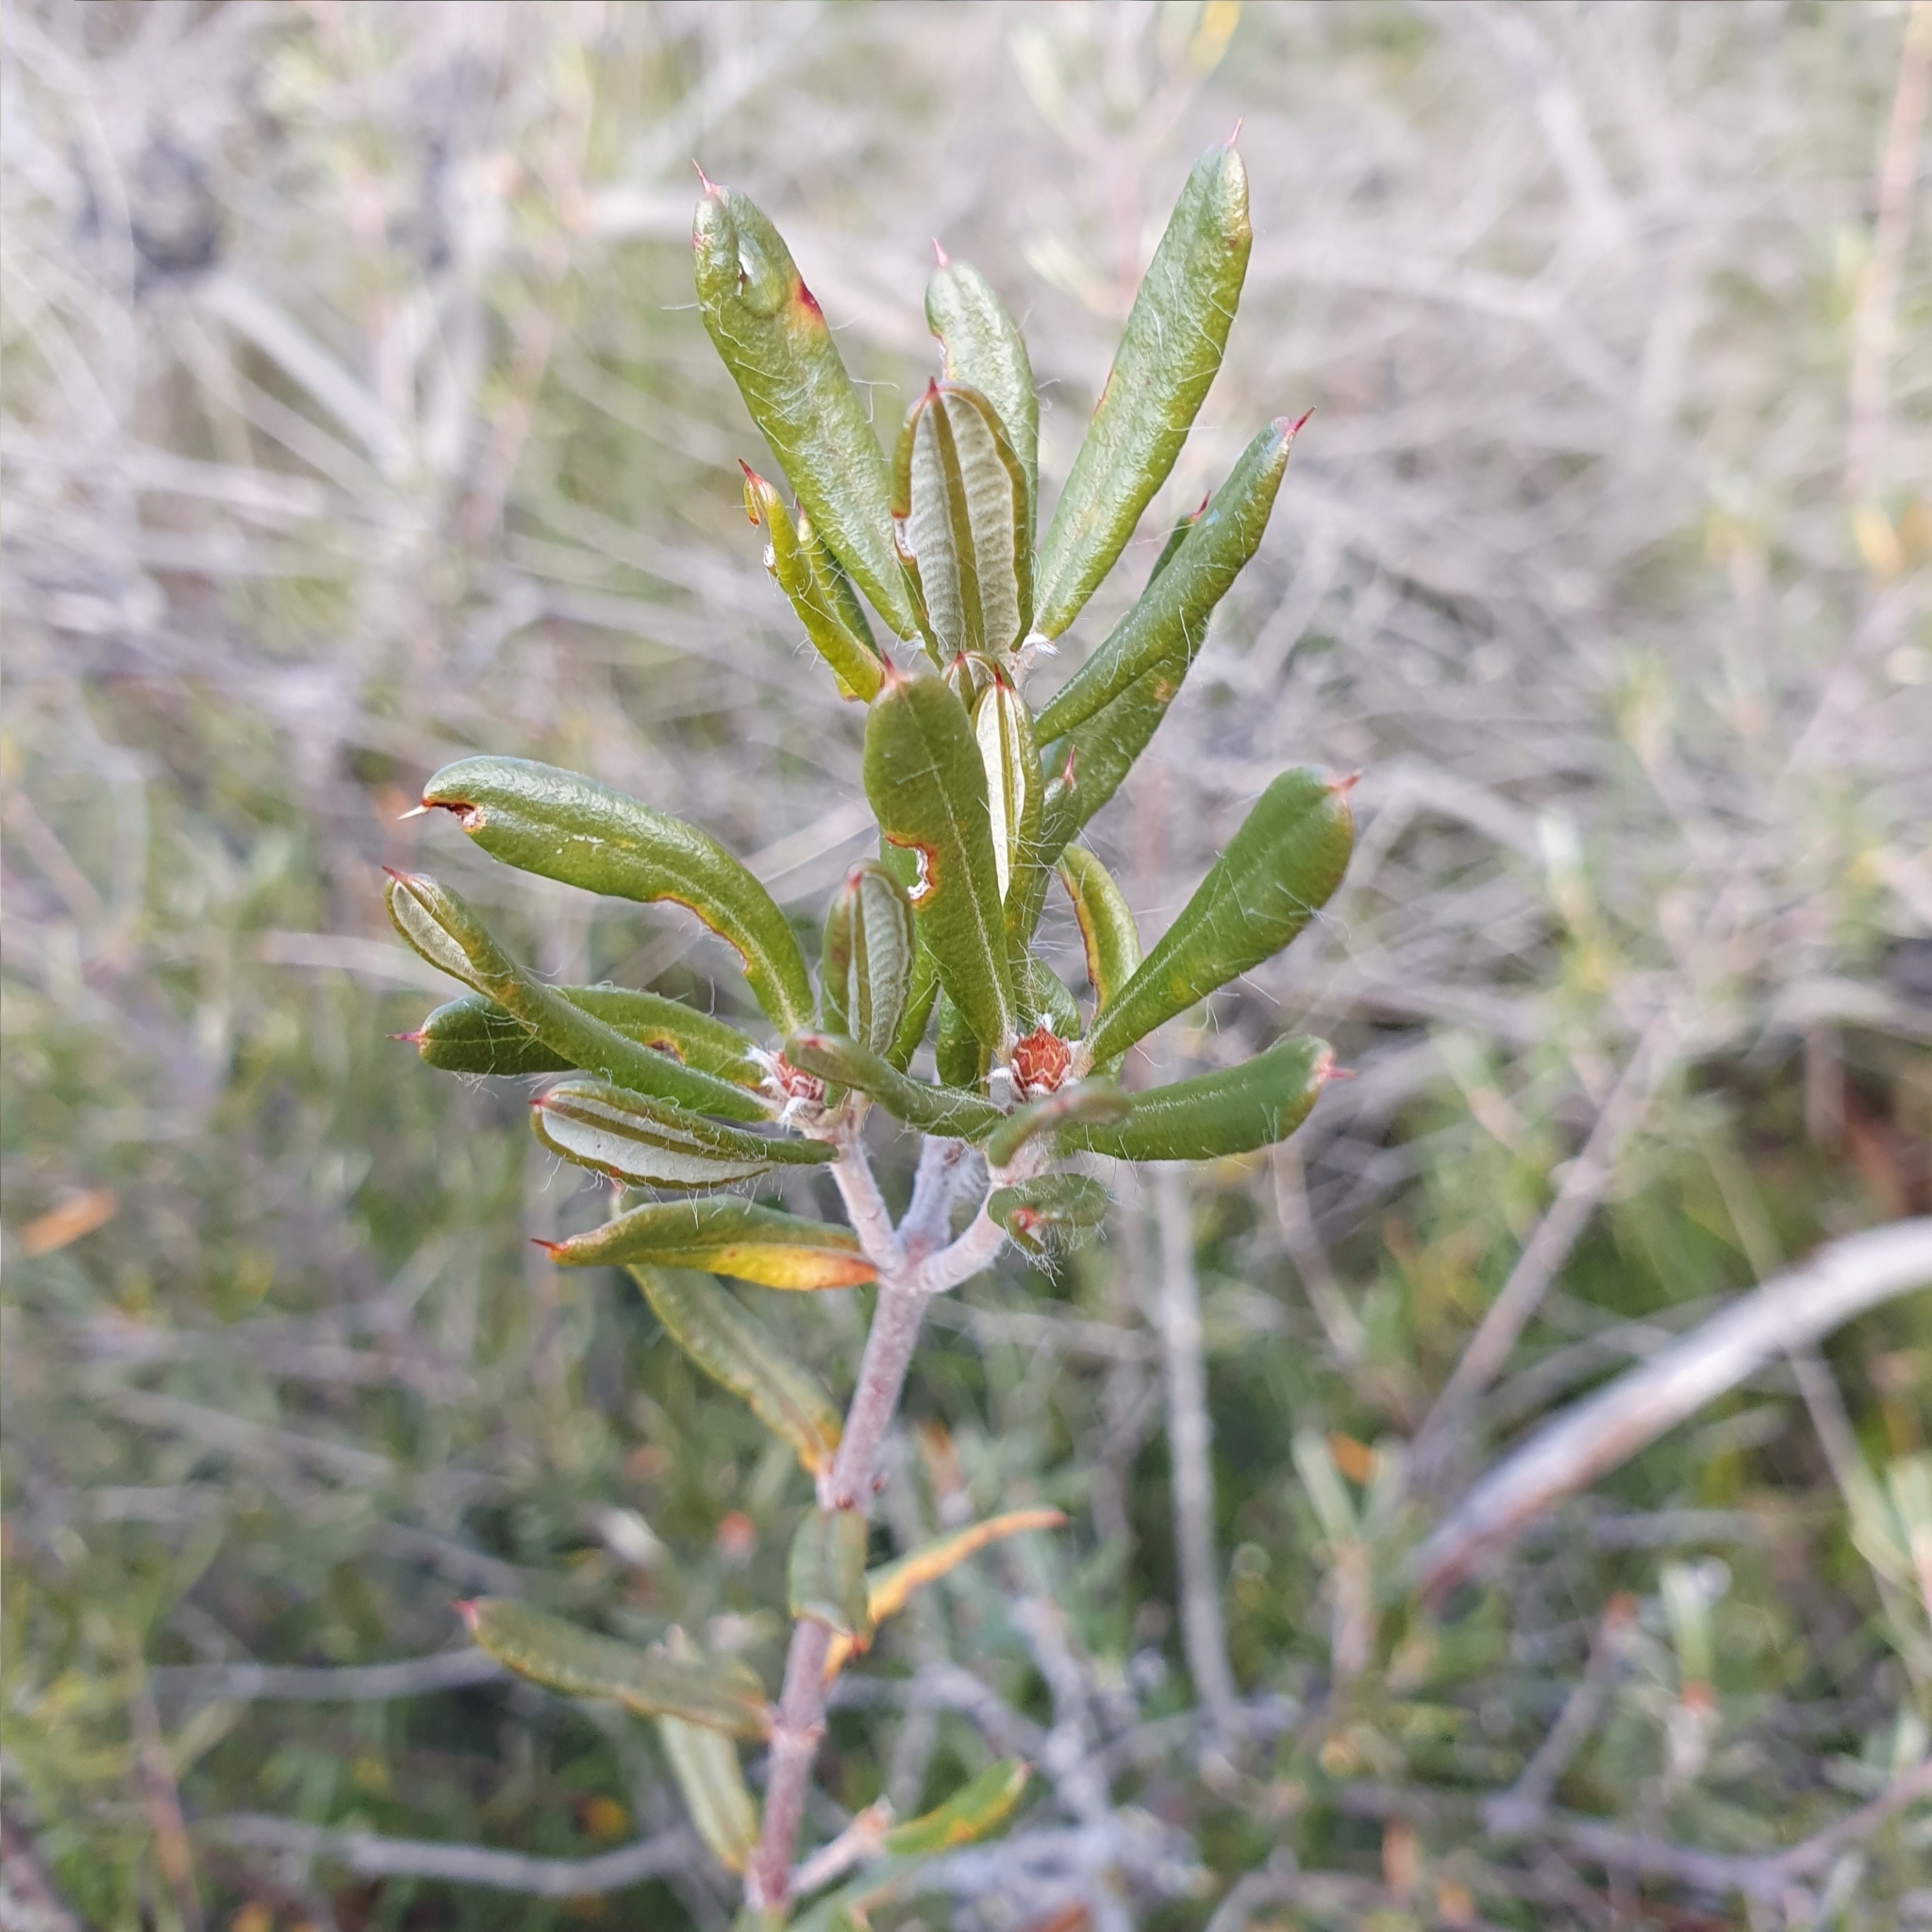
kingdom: Plantae
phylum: Tracheophyta
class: Magnoliopsida
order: Proteales
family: Proteaceae
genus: Lambertia
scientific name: Lambertia formosa
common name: Mountain-devil
